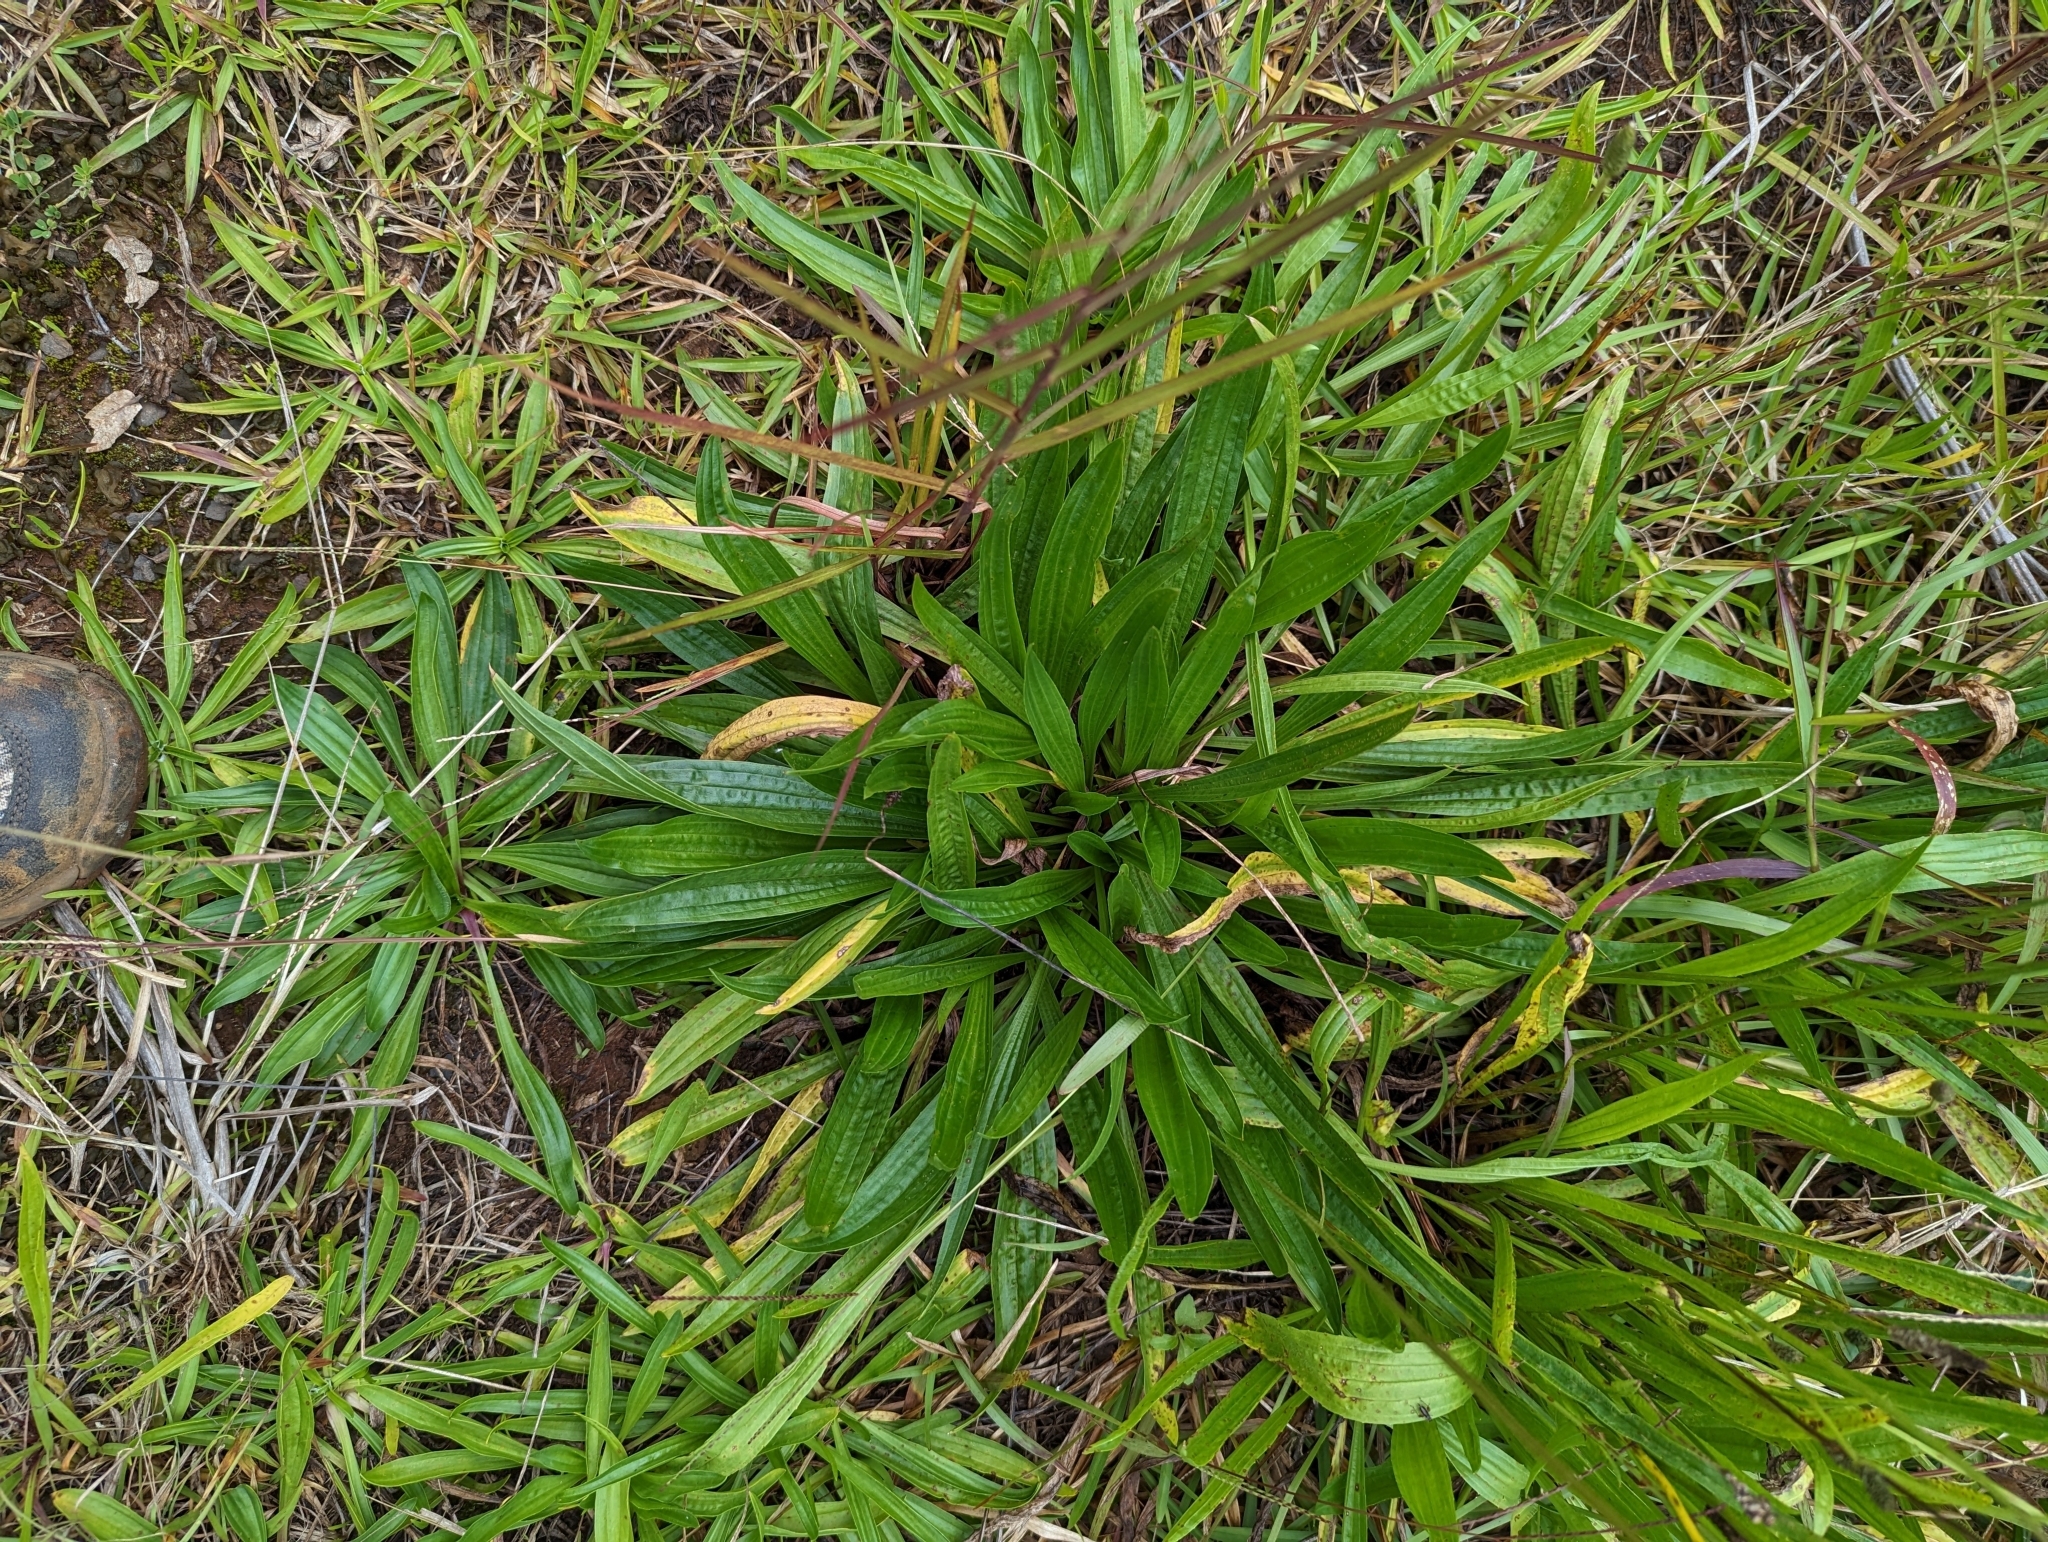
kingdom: Plantae
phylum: Tracheophyta
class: Magnoliopsida
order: Lamiales
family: Plantaginaceae
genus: Plantago
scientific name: Plantago lanceolata
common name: Ribwort plantain
